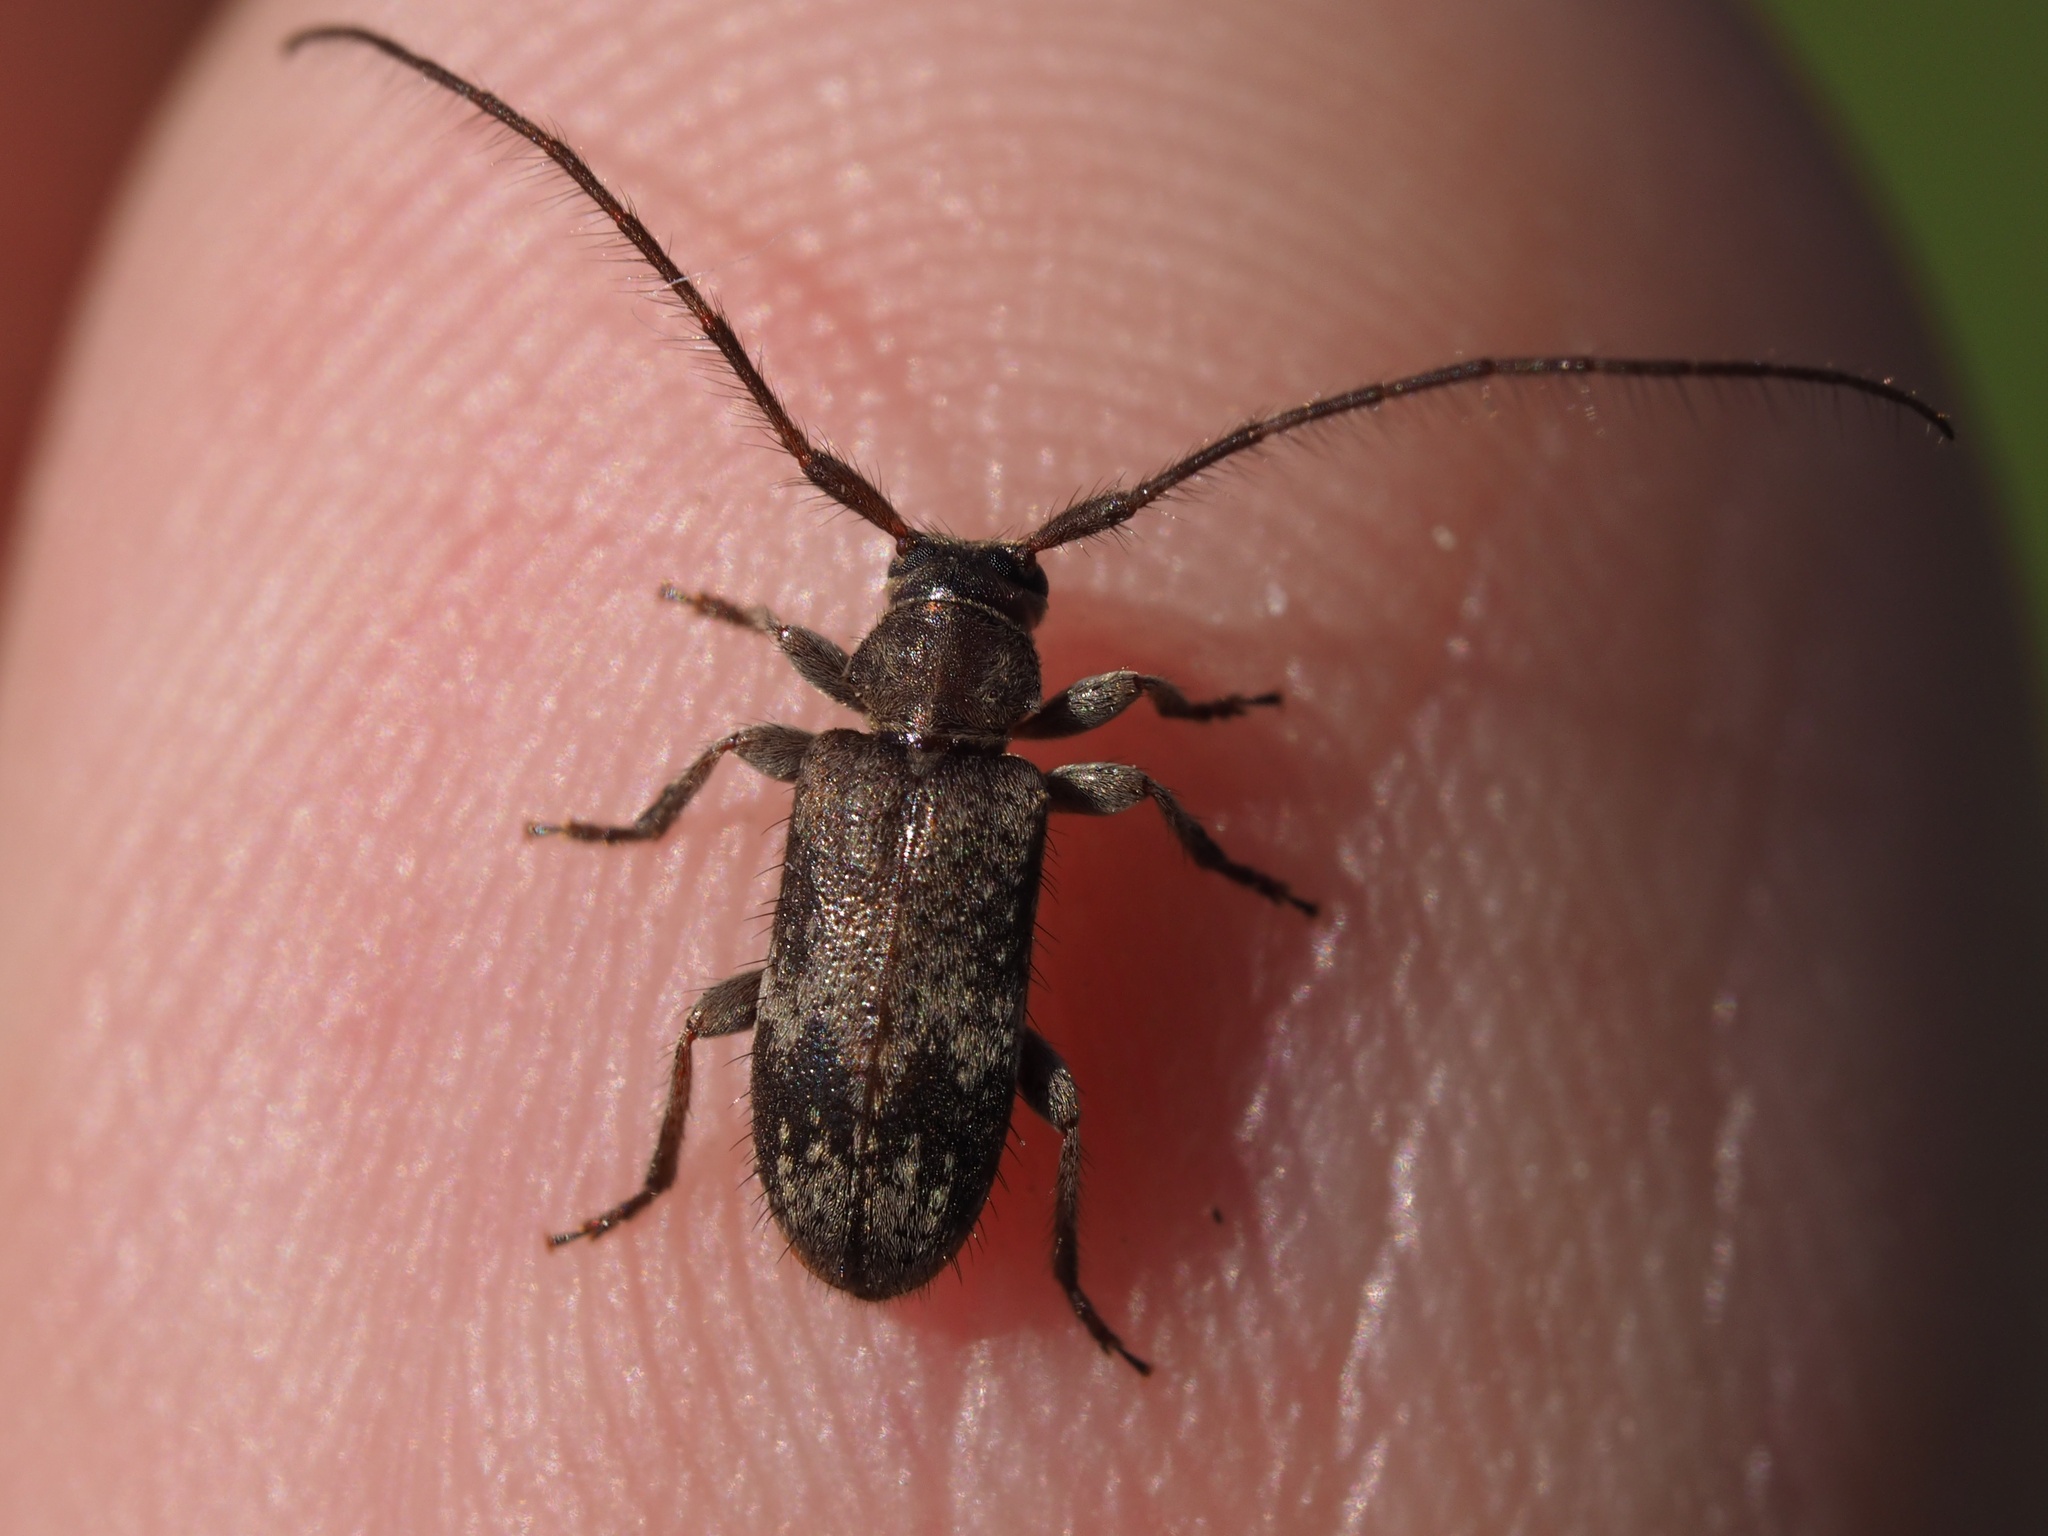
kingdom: Animalia
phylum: Arthropoda
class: Insecta
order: Coleoptera
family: Cerambycidae
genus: Exocentrus
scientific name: Exocentrus adspersus
